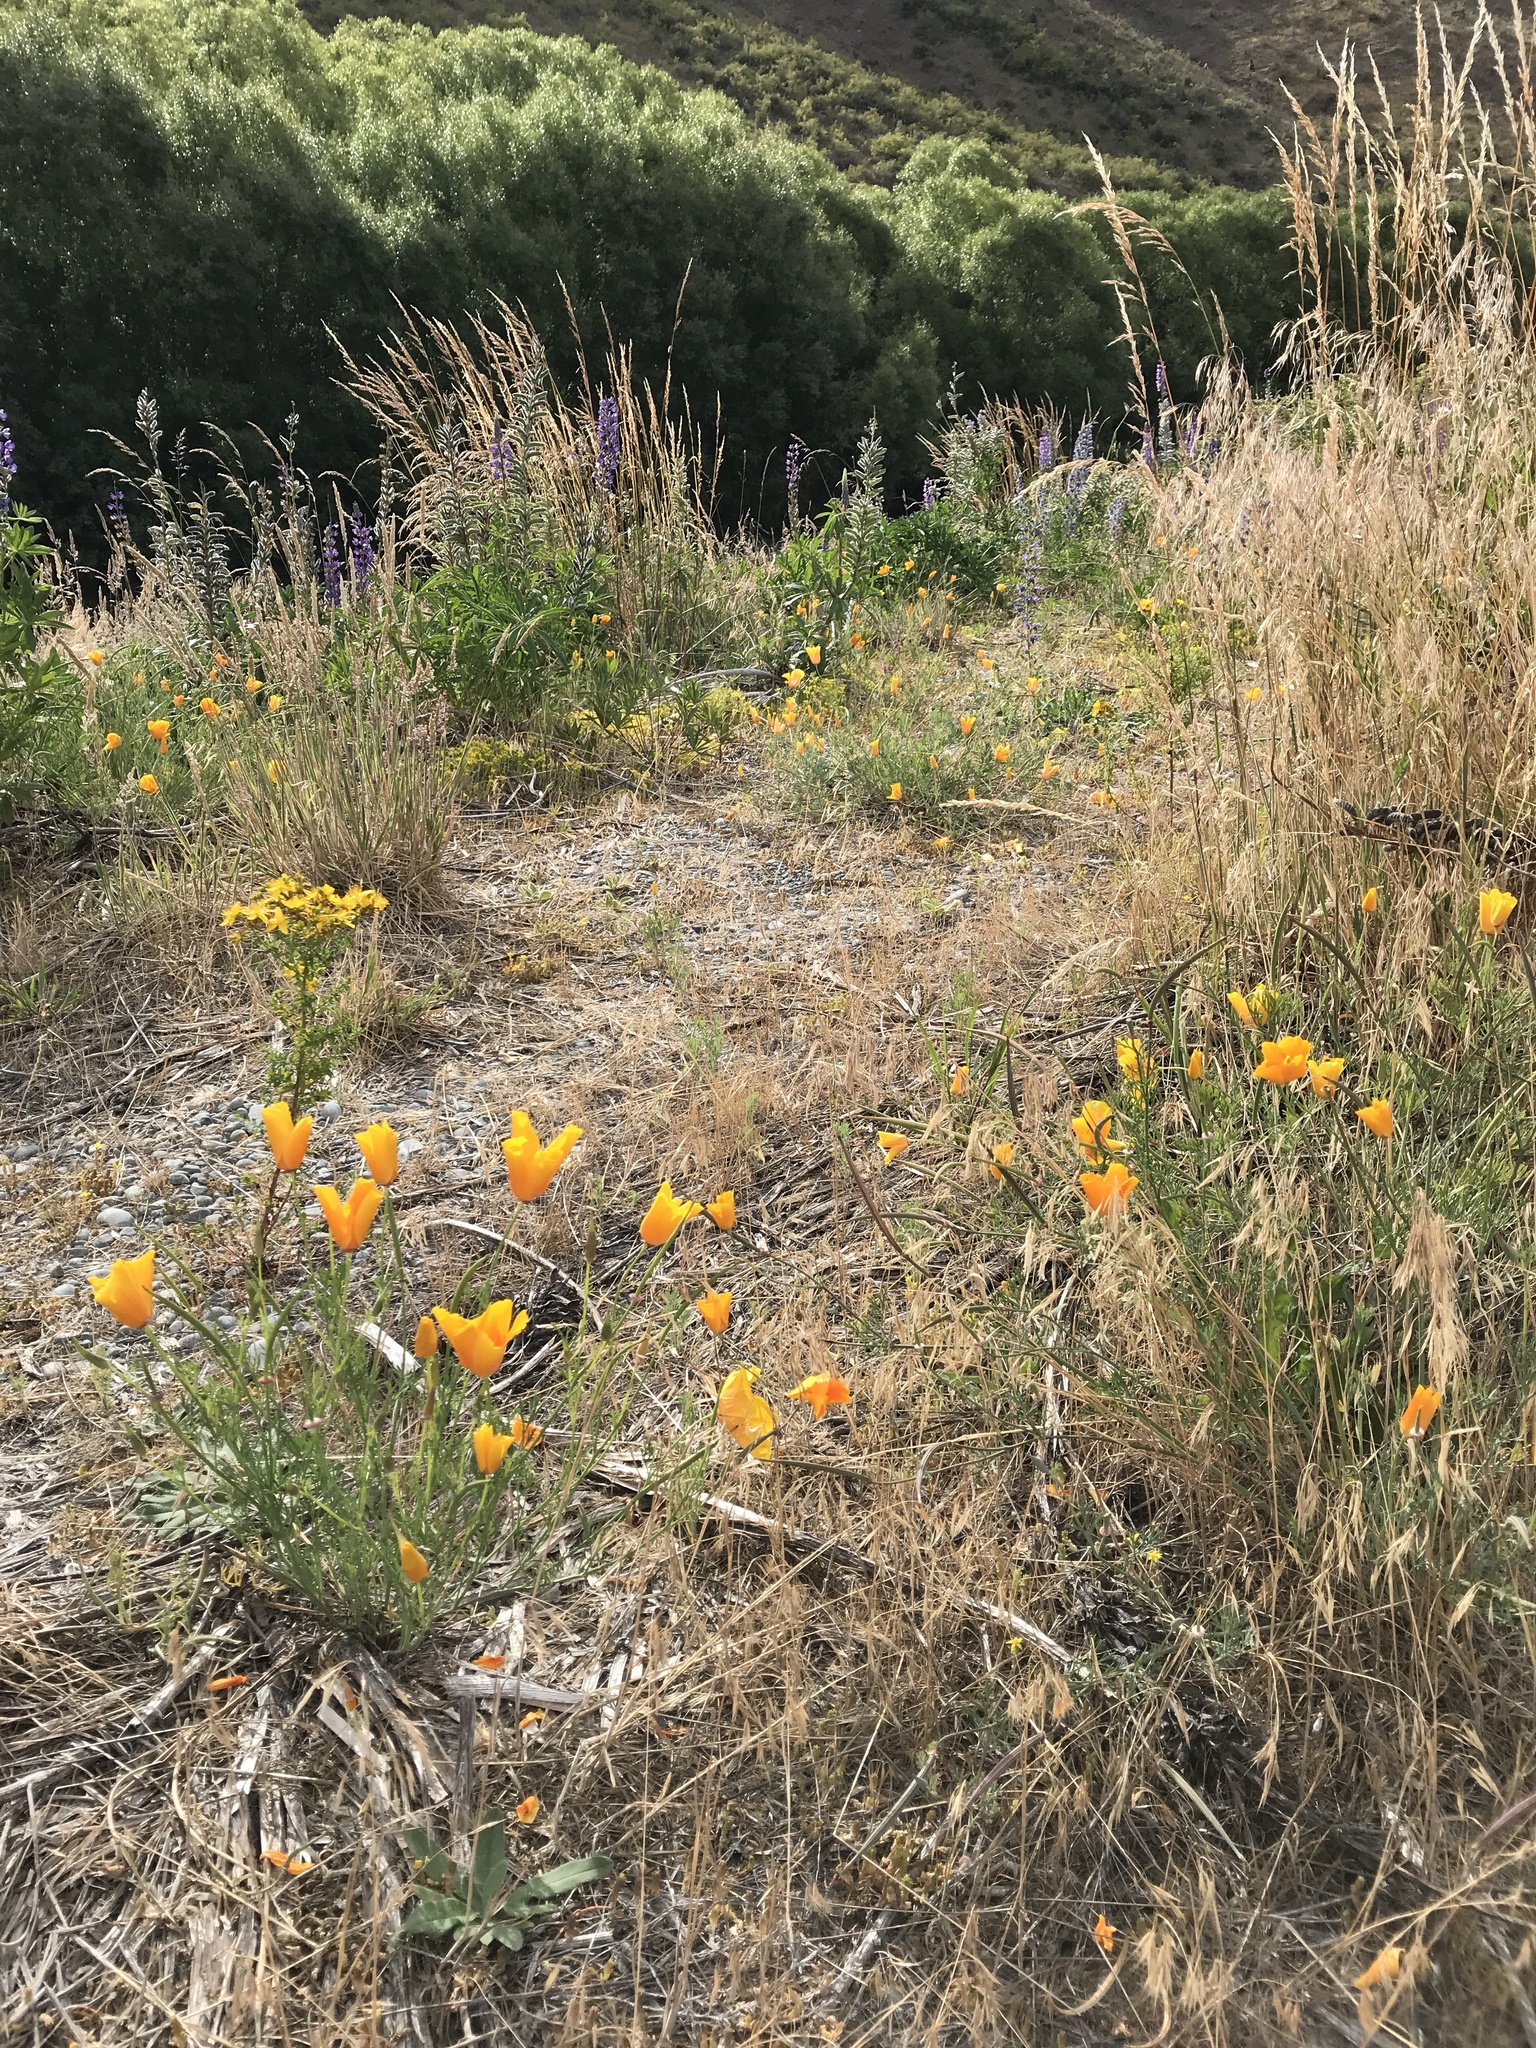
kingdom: Plantae
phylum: Tracheophyta
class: Magnoliopsida
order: Ranunculales
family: Papaveraceae
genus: Eschscholzia
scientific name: Eschscholzia californica
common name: California poppy
